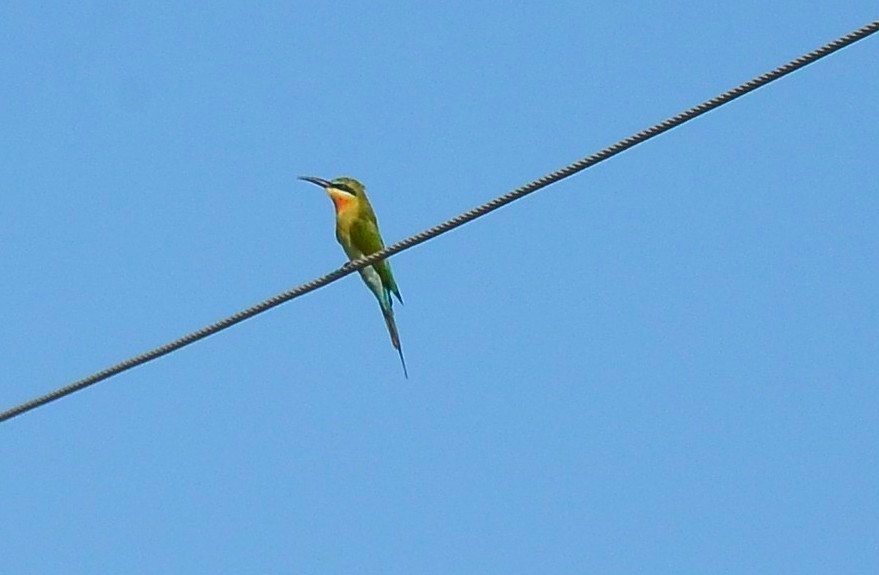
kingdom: Animalia
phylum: Chordata
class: Aves
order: Coraciiformes
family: Meropidae
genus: Merops
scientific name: Merops philippinus
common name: Blue-tailed bee-eater
